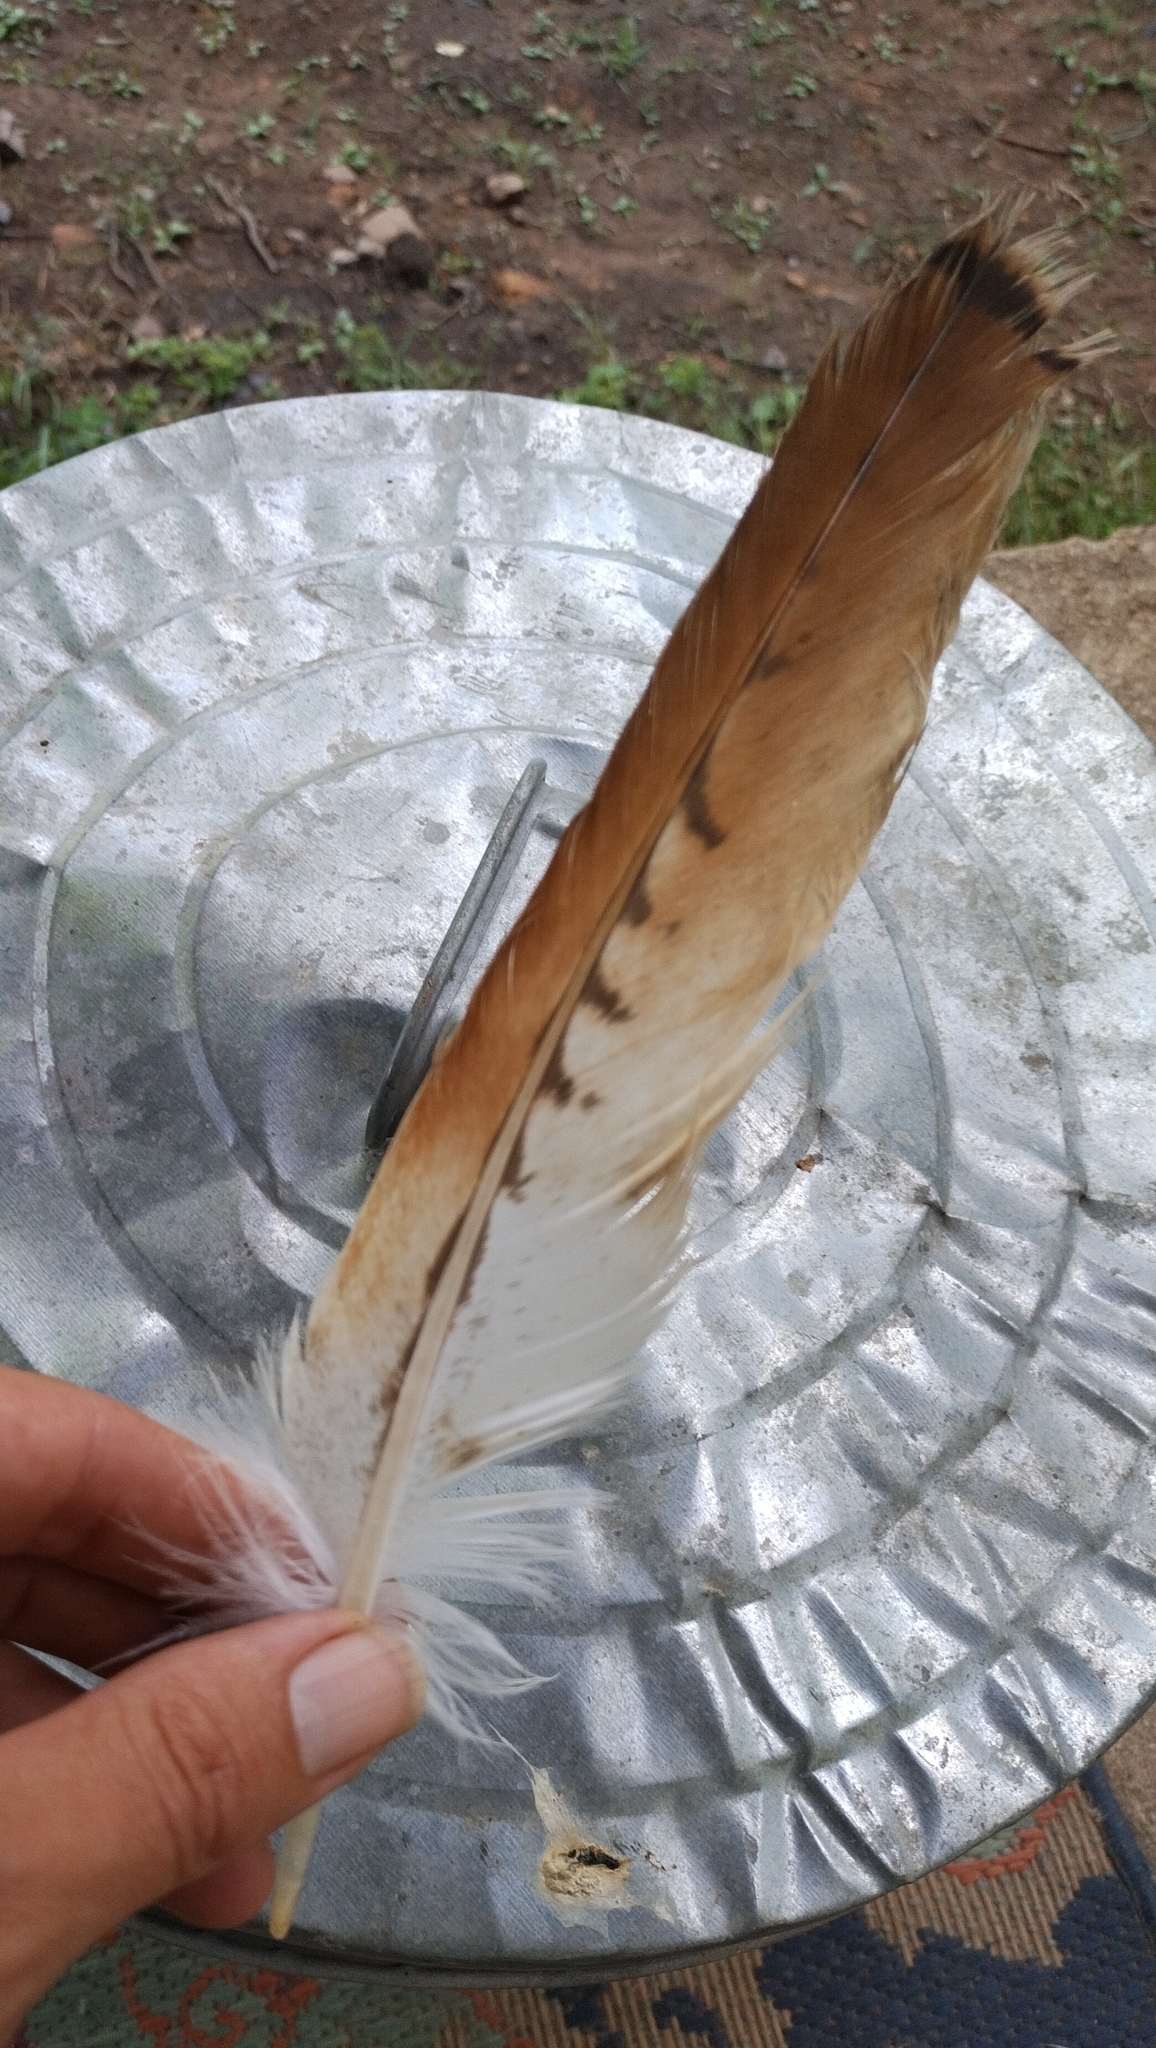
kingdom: Animalia
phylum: Chordata
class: Aves
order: Accipitriformes
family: Accipitridae
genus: Buteo
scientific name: Buteo jamaicensis
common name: Red-tailed hawk
